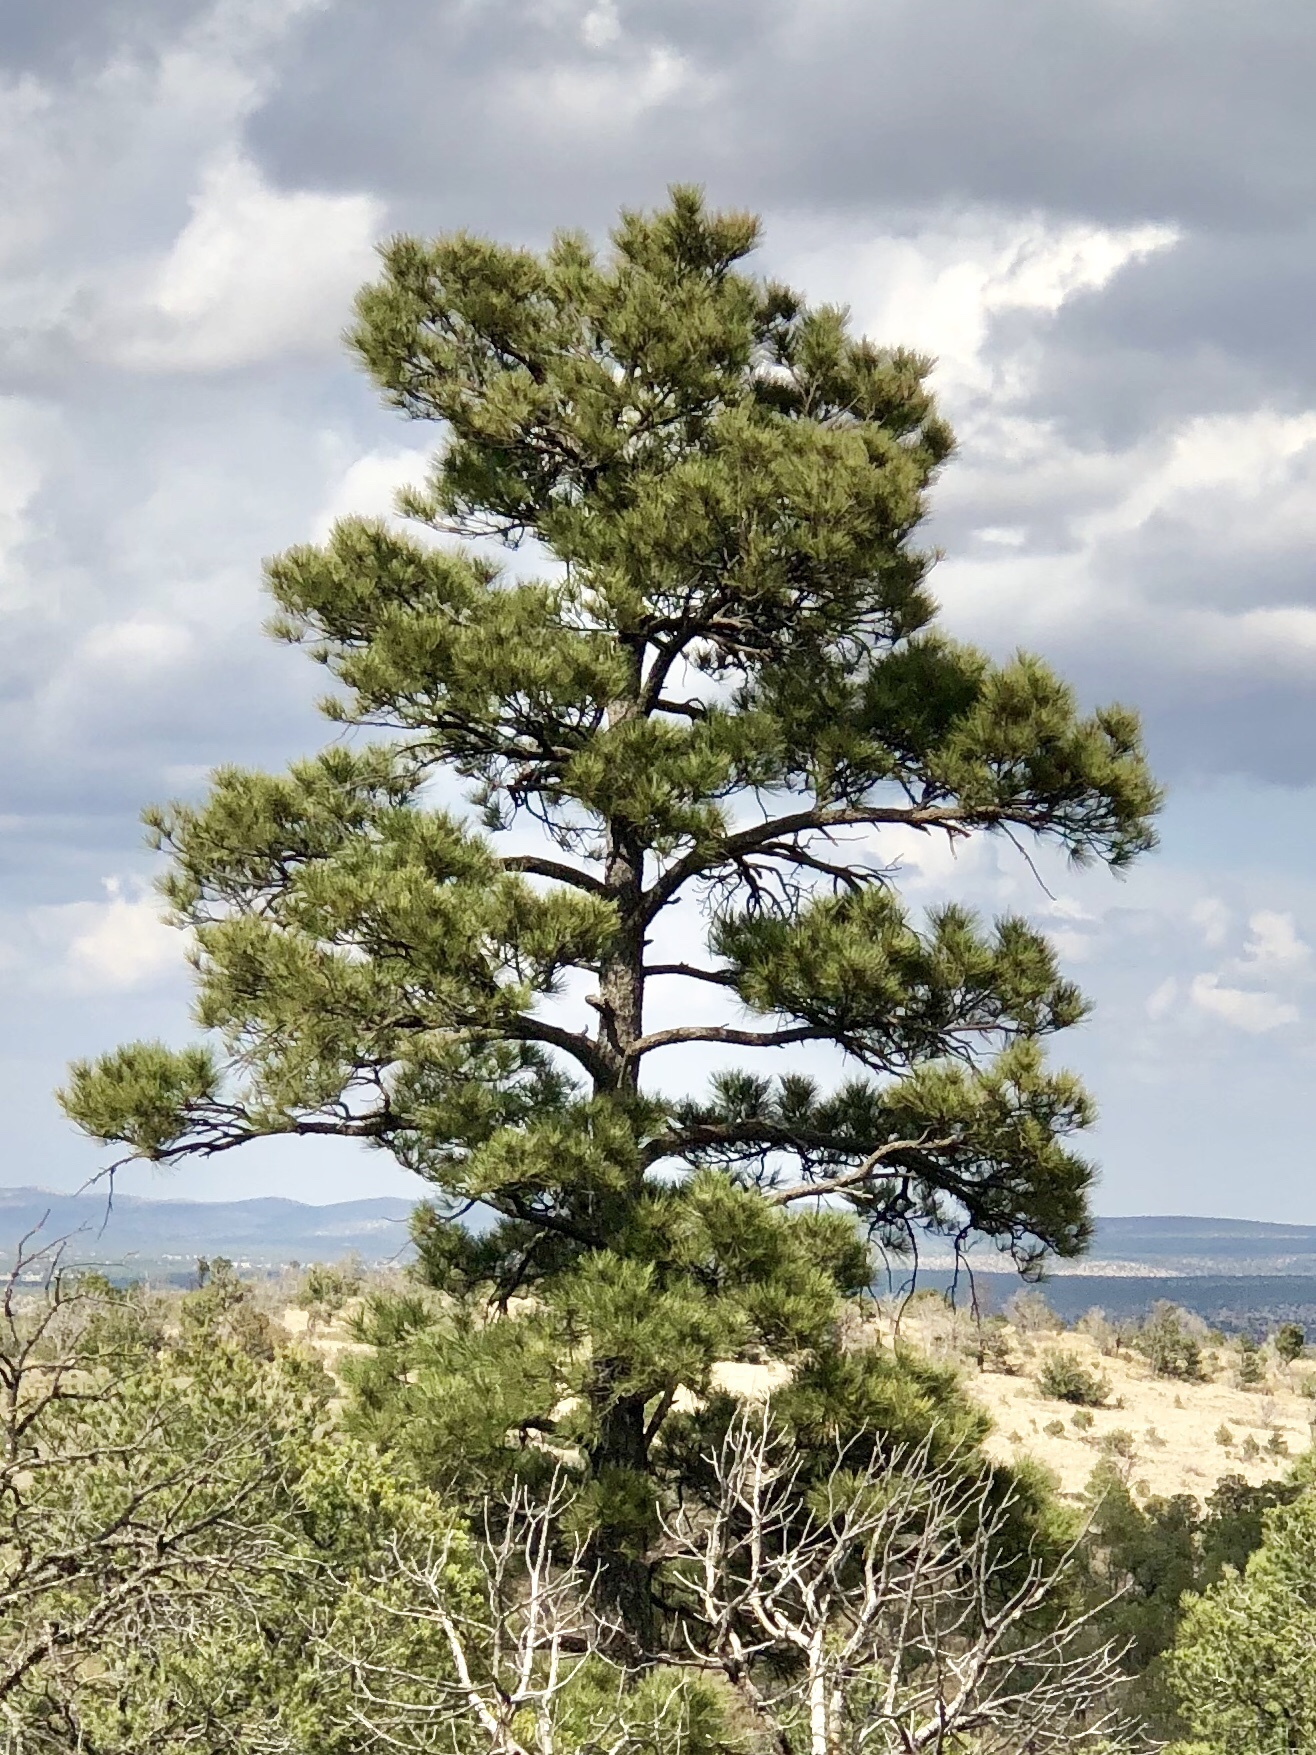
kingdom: Plantae
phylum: Tracheophyta
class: Pinopsida
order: Pinales
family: Pinaceae
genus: Pinus
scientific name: Pinus ponderosa
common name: Western yellow-pine
